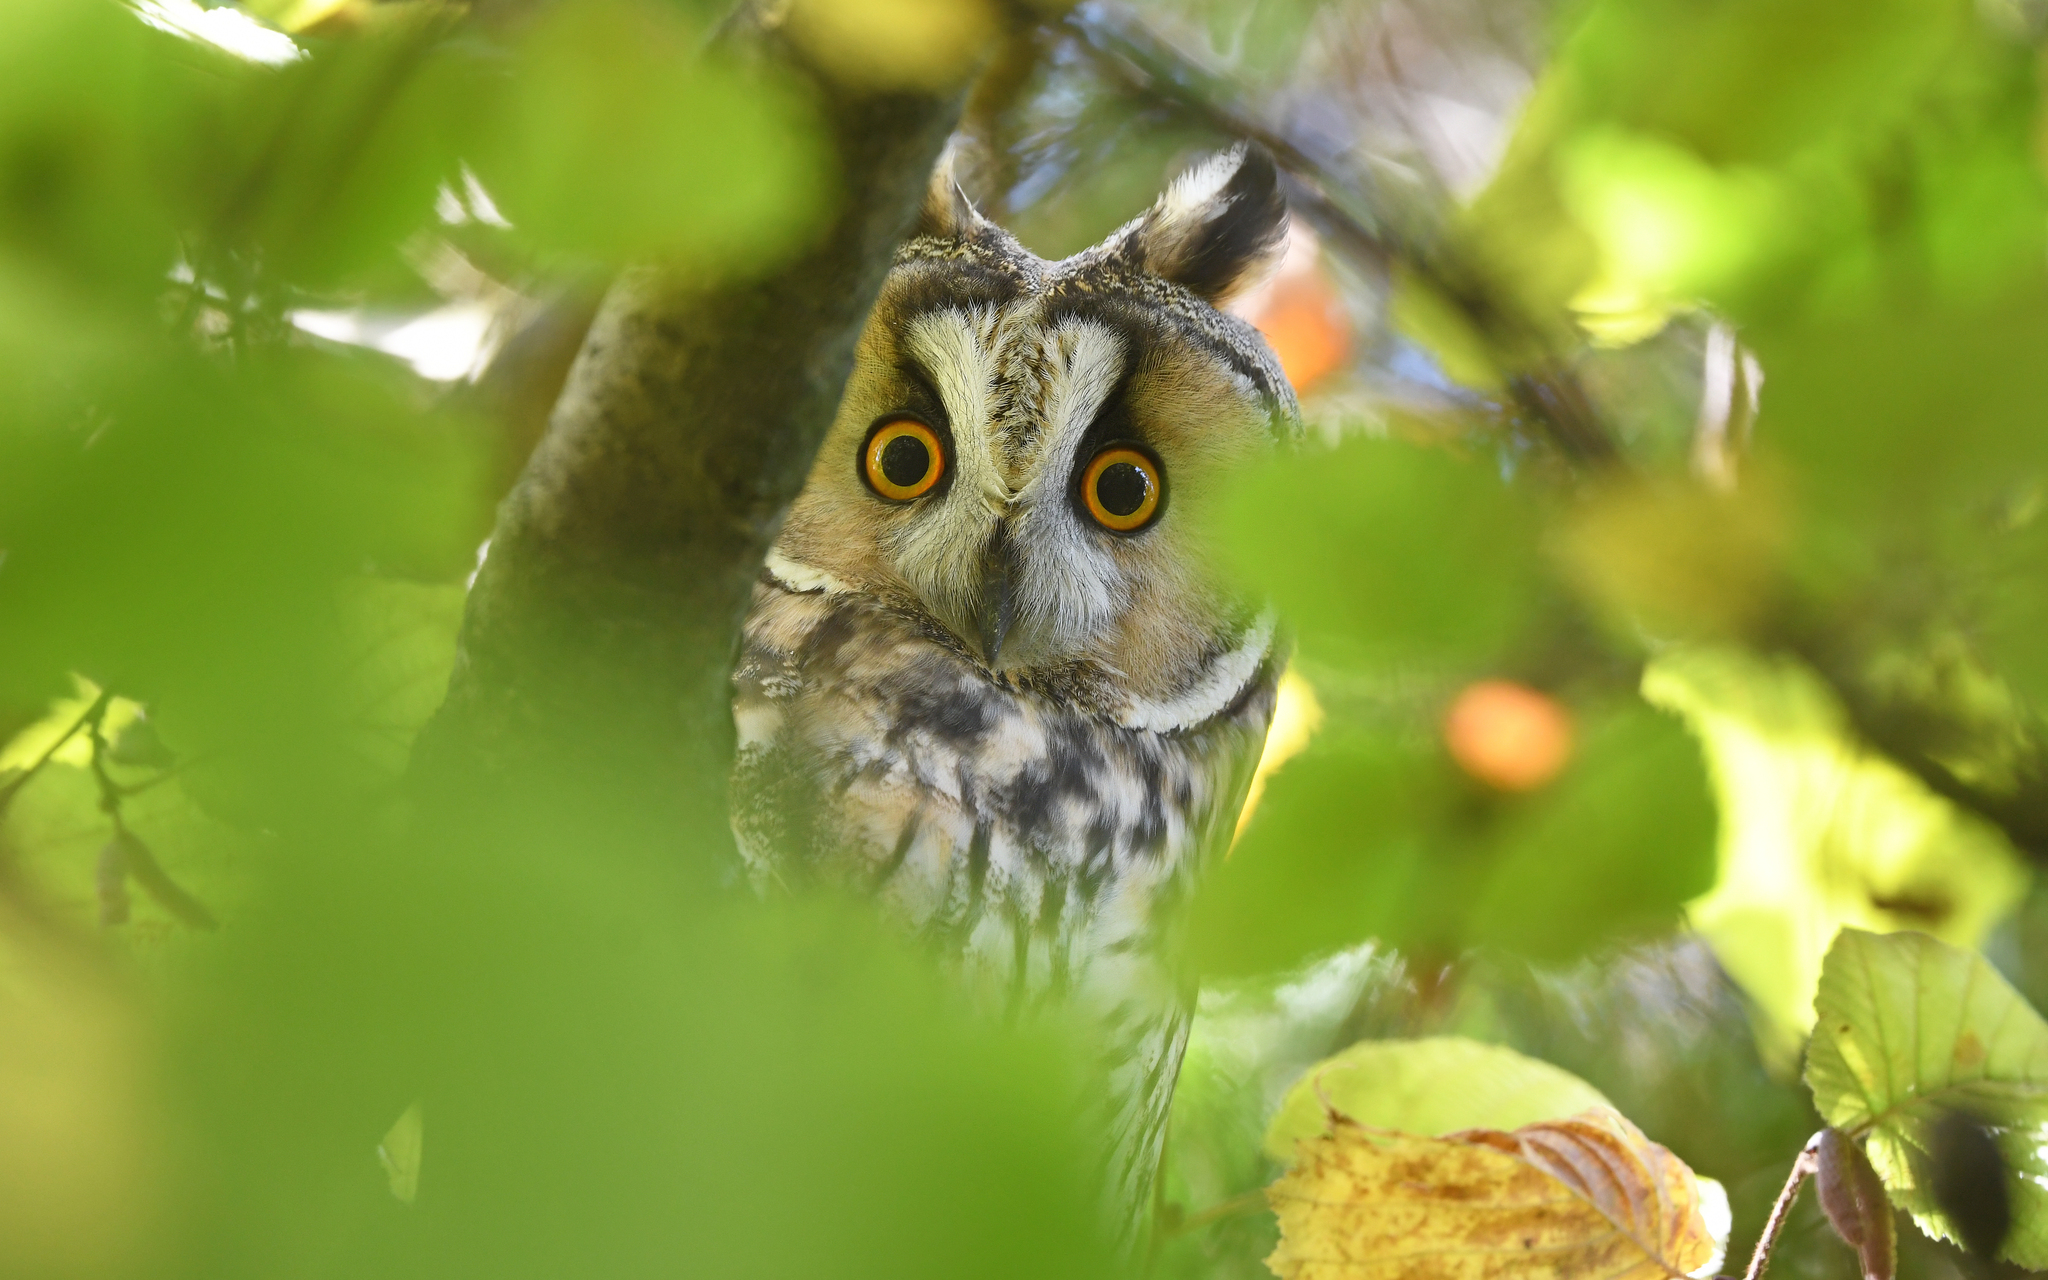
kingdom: Animalia
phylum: Chordata
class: Aves
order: Strigiformes
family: Strigidae
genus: Asio
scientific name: Asio otus
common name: Long-eared owl
